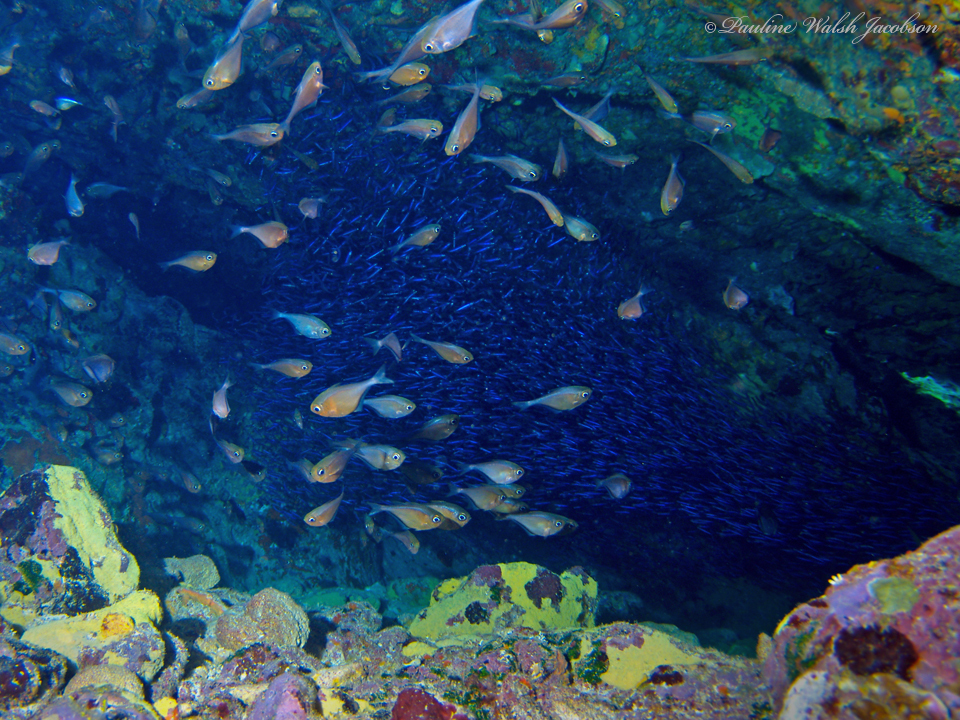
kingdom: Animalia
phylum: Chordata
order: Perciformes
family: Pempheridae
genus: Pempheris
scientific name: Pempheris schomburgkii
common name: Glassy sweeper
